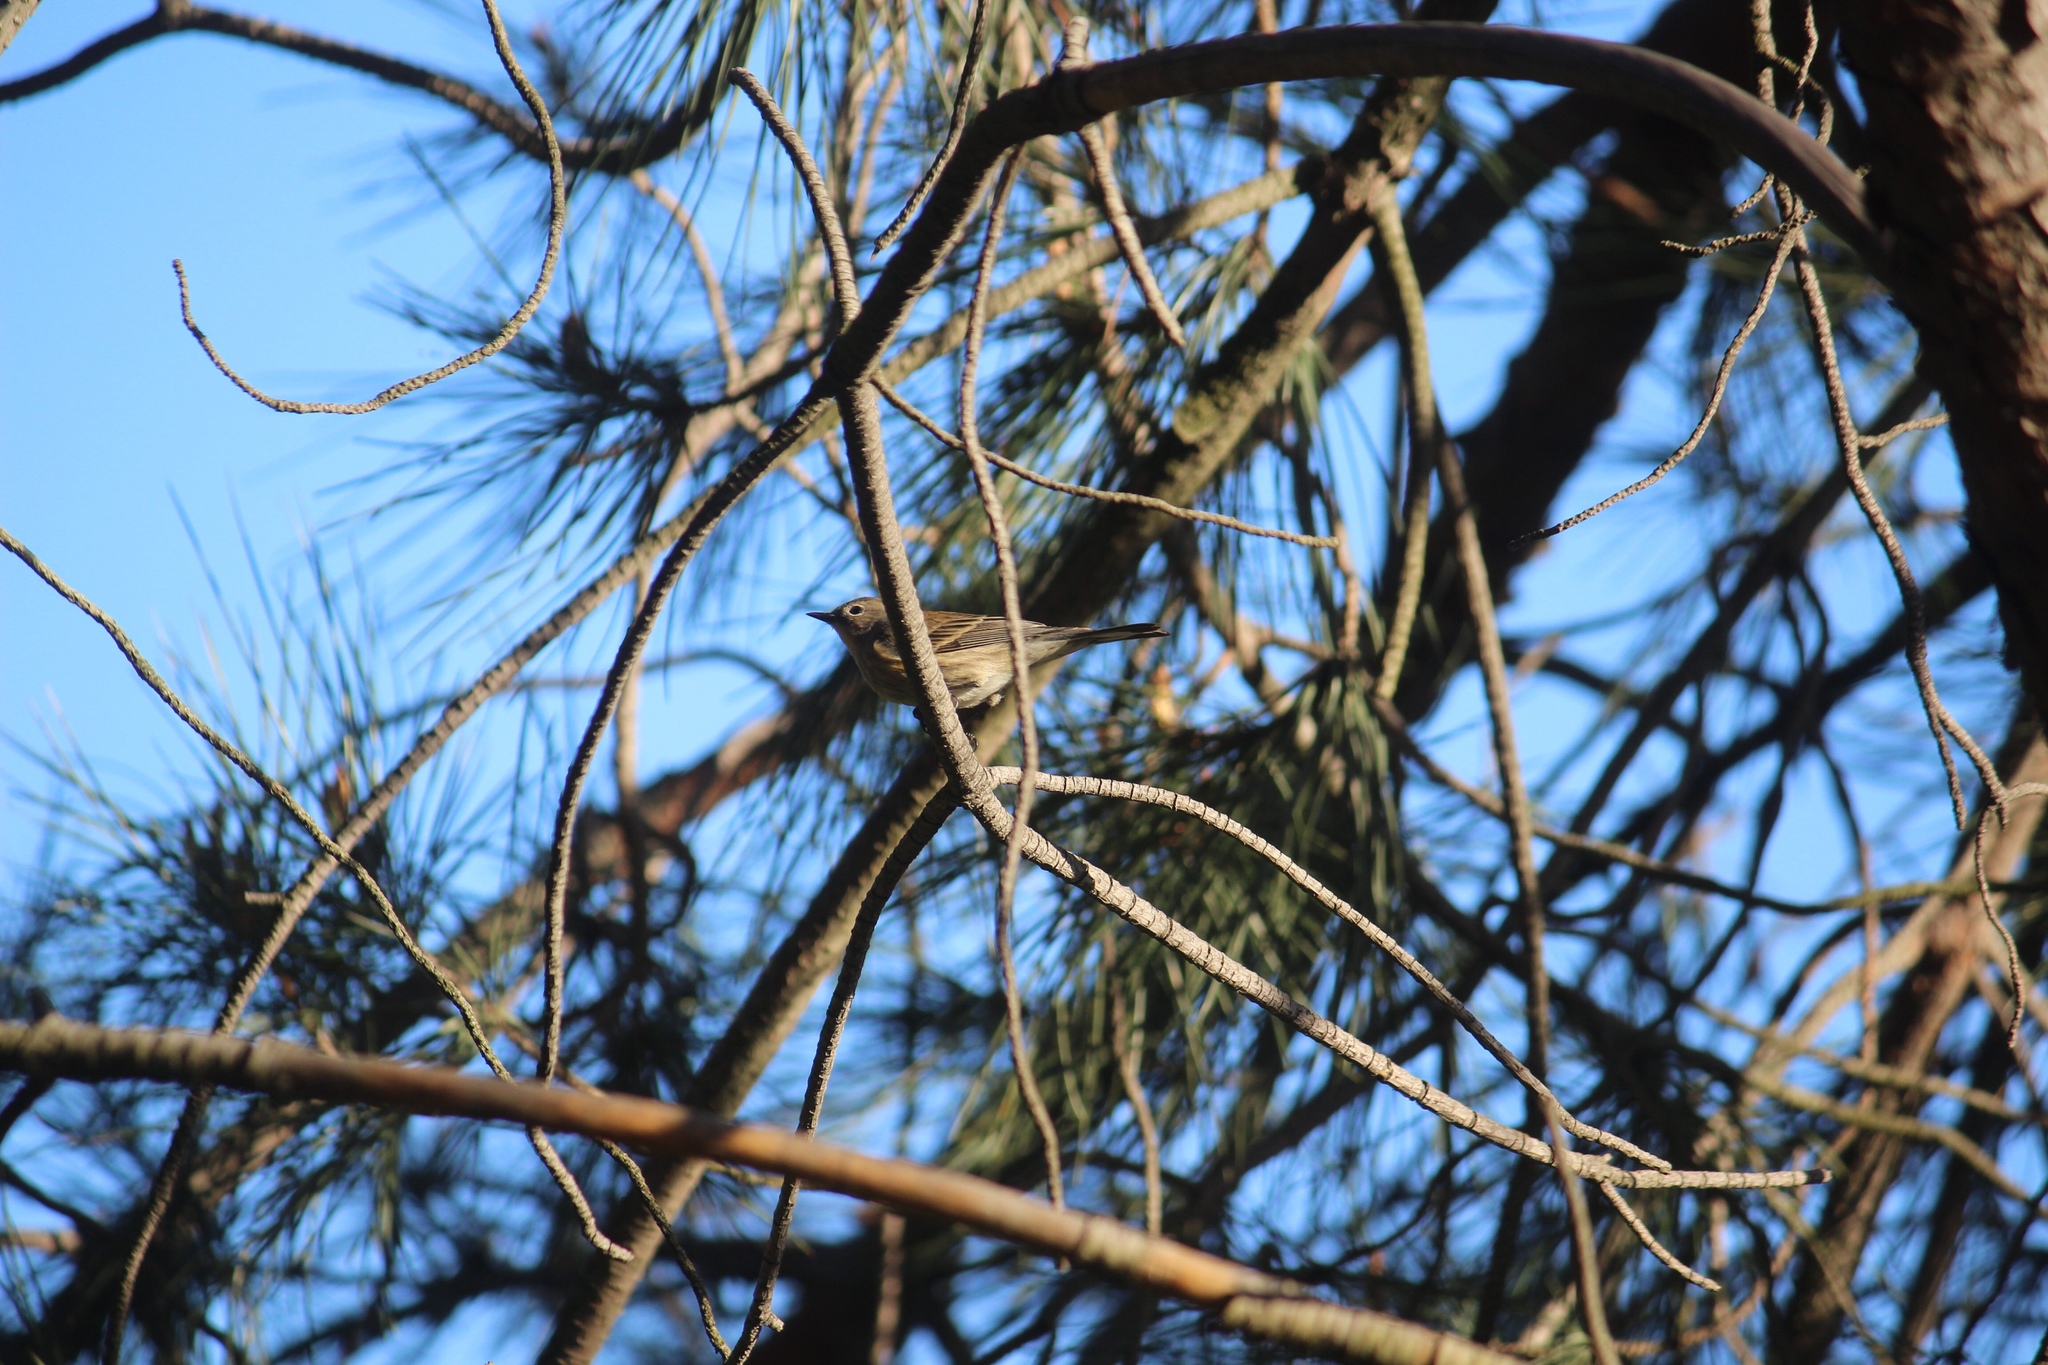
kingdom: Animalia
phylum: Chordata
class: Aves
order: Passeriformes
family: Parulidae
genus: Setophaga
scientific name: Setophaga coronata
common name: Myrtle warbler
